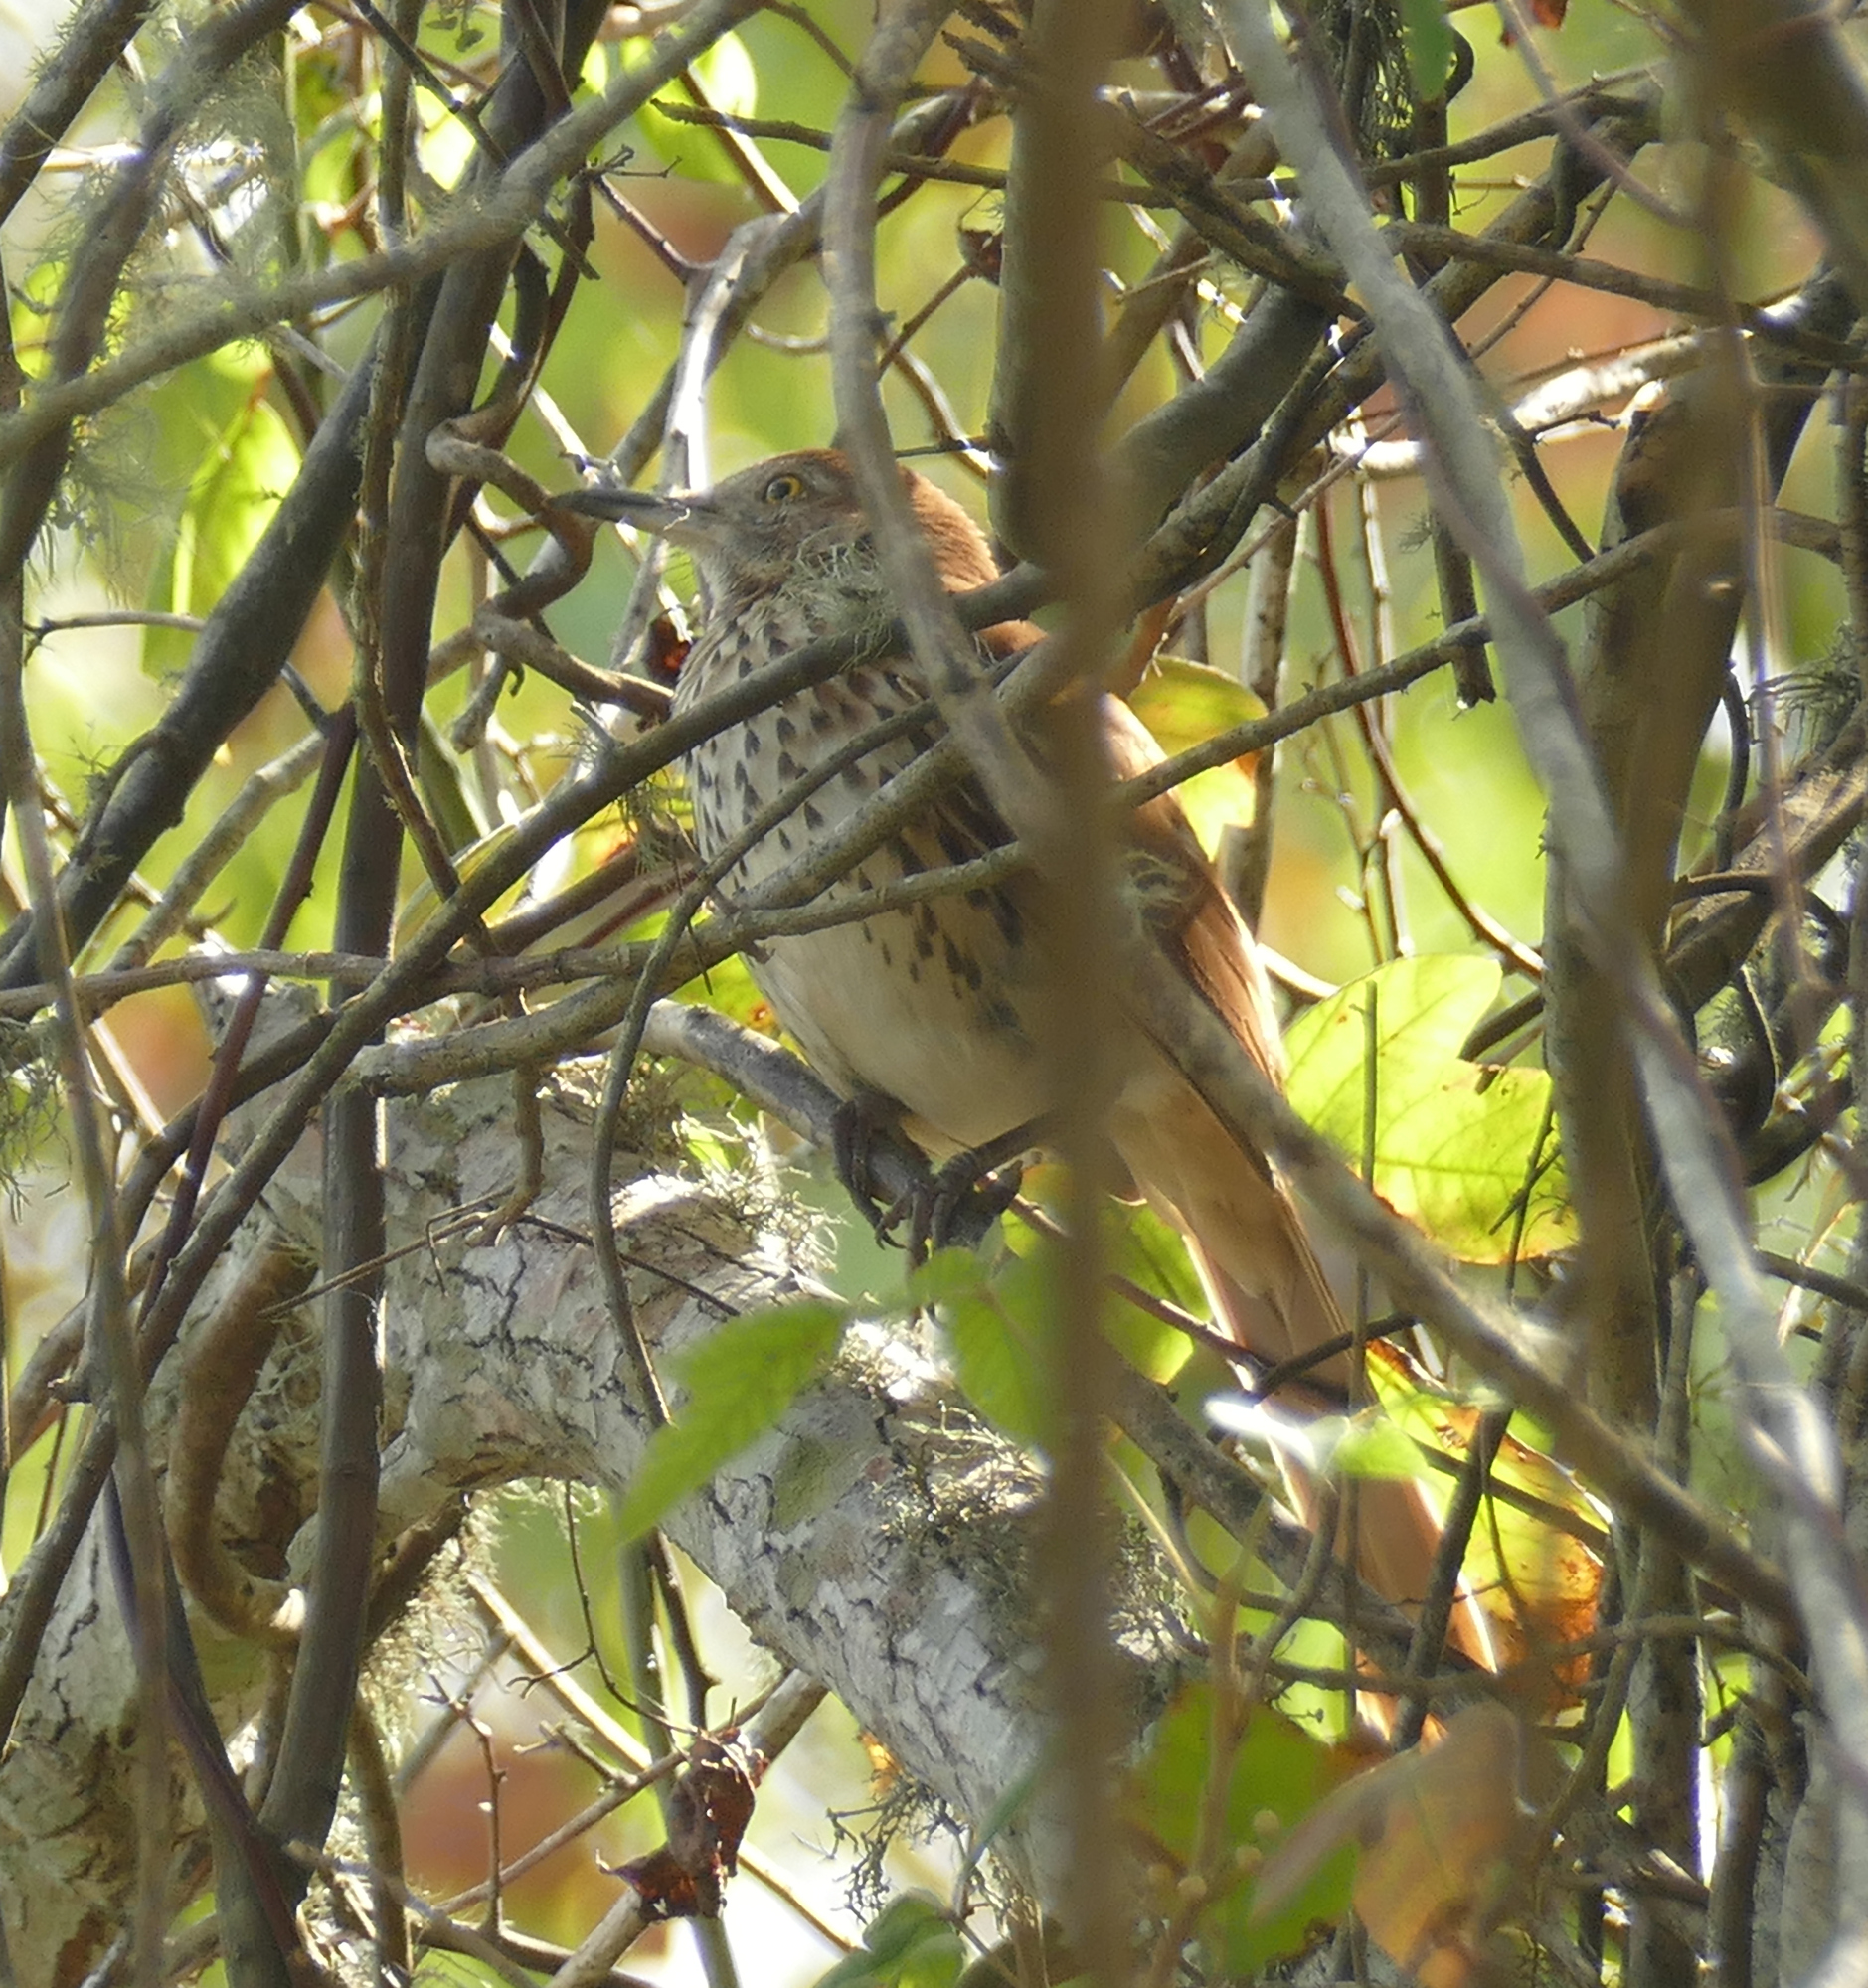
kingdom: Animalia
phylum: Chordata
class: Aves
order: Passeriformes
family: Mimidae
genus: Toxostoma
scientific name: Toxostoma rufum
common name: Brown thrasher
